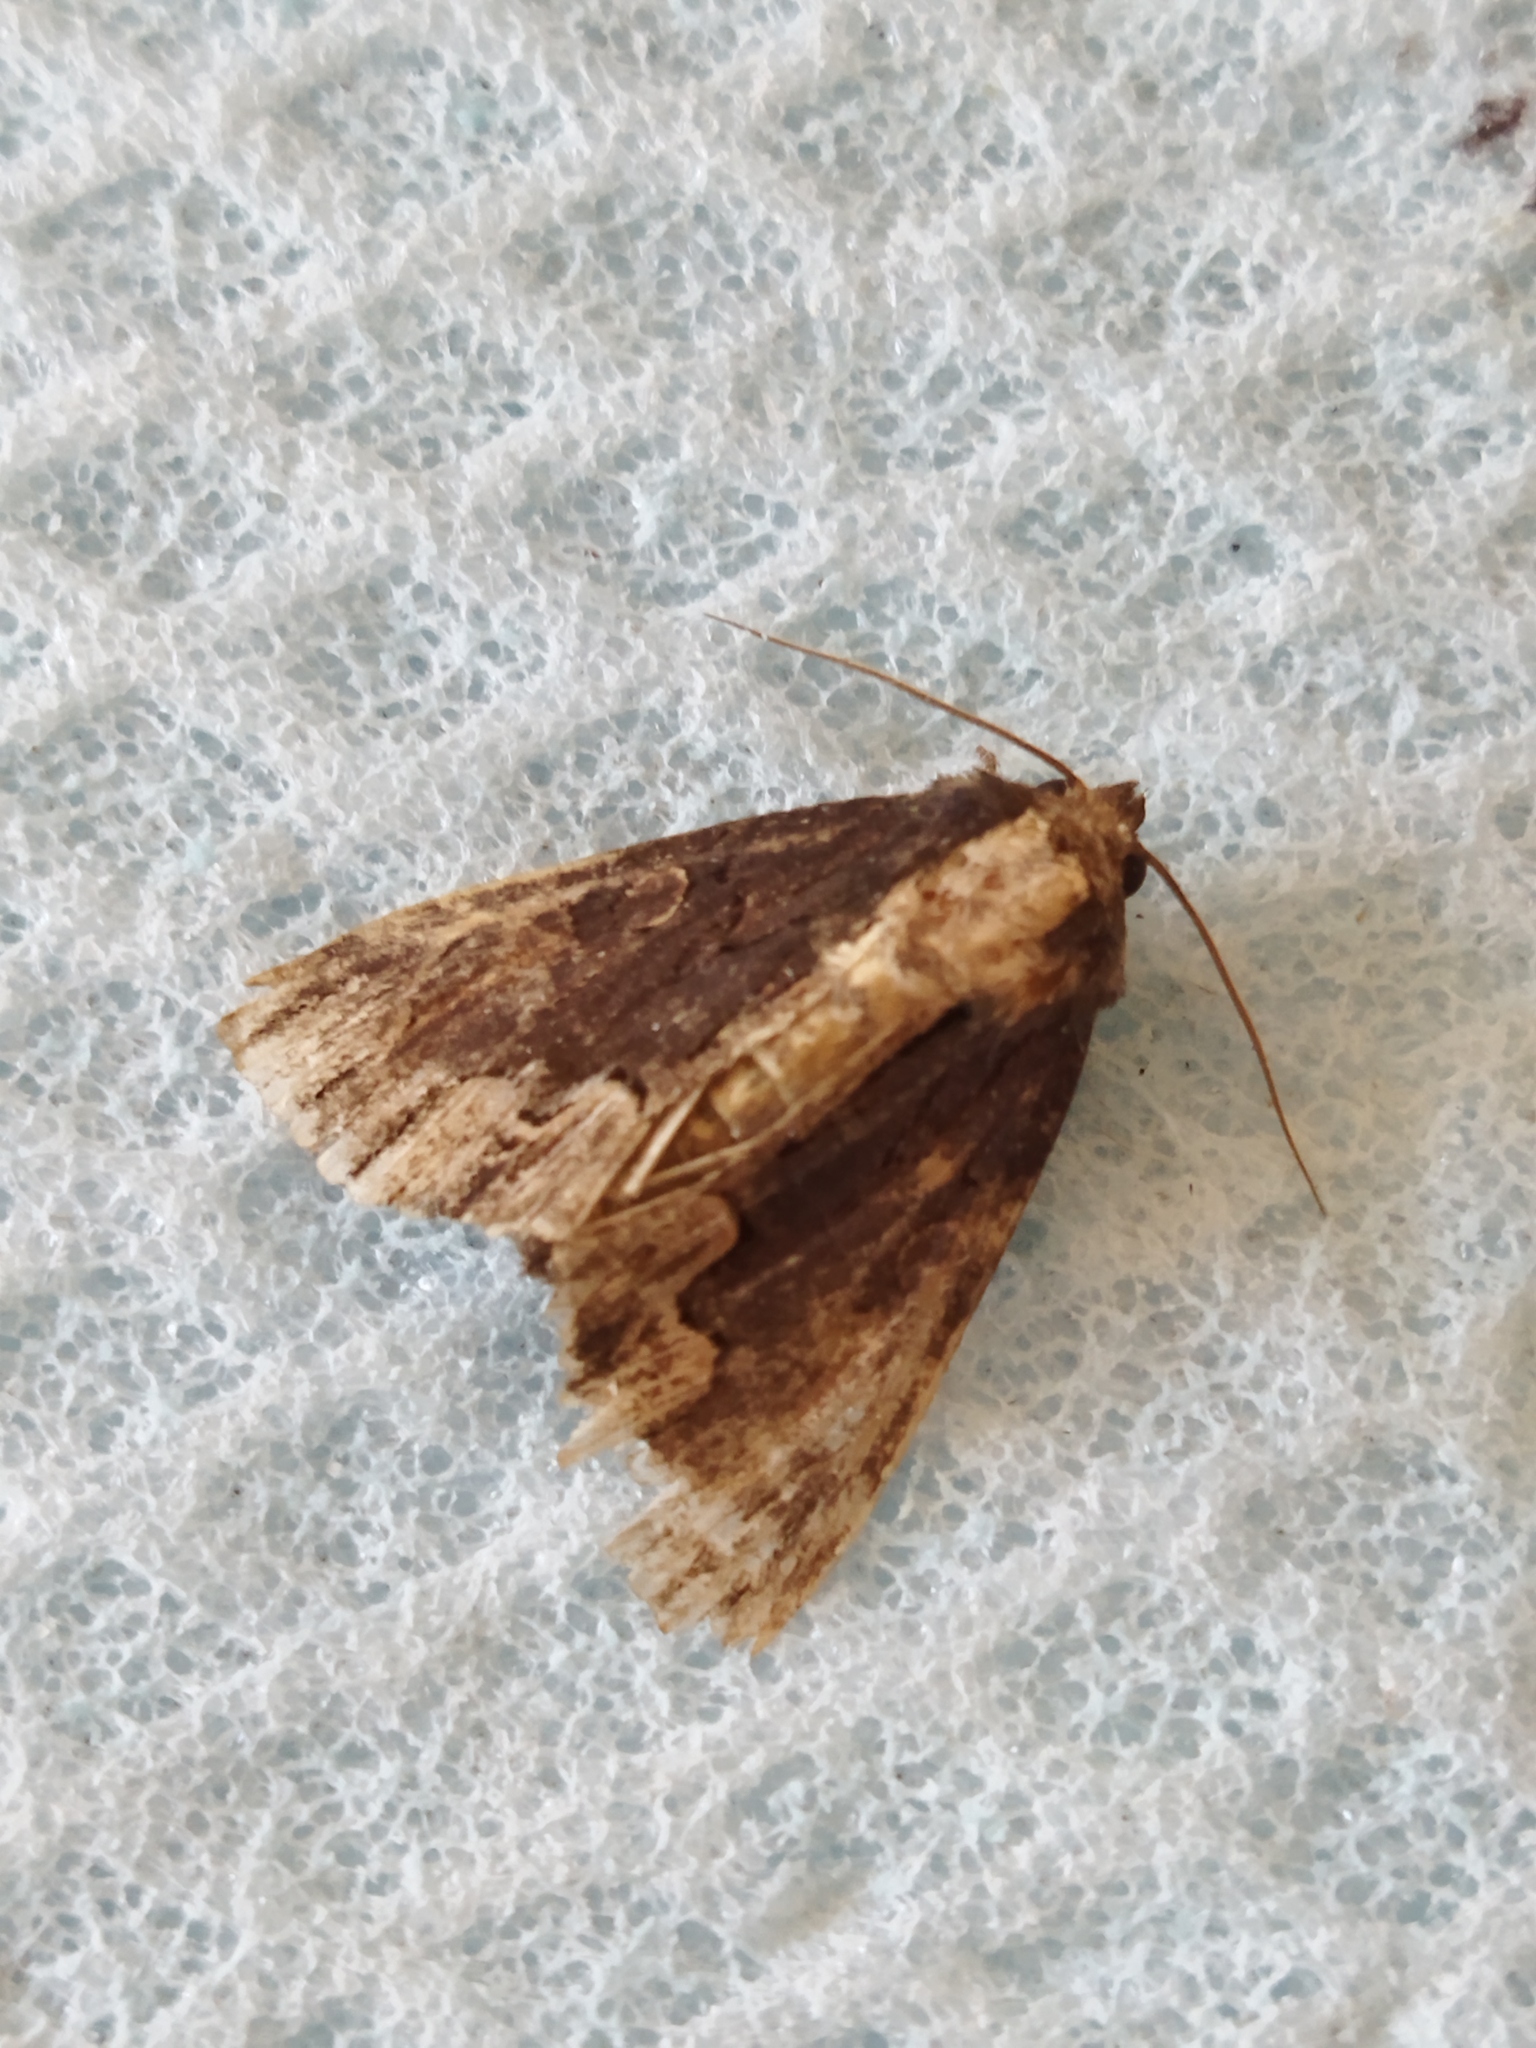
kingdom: Animalia
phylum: Arthropoda
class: Insecta
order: Lepidoptera
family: Noctuidae
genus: Dypterygia
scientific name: Dypterygia scabriuscula
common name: Bird's wing
